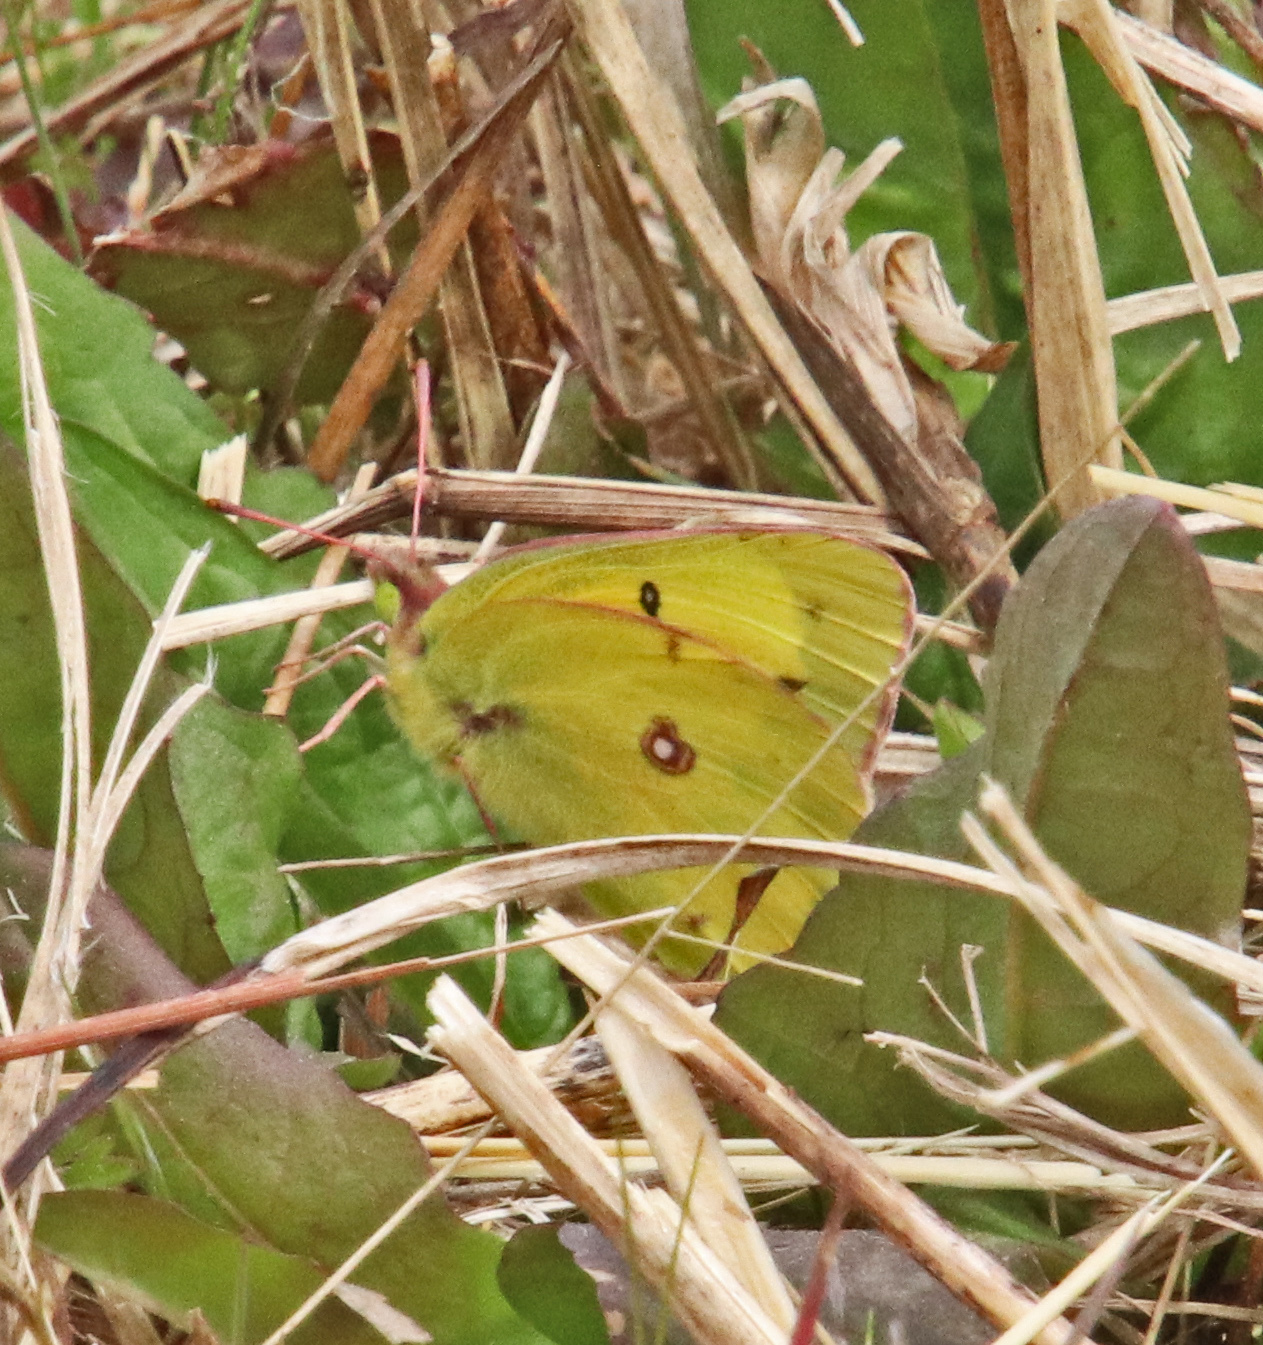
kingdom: Animalia
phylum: Arthropoda
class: Insecta
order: Lepidoptera
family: Pieridae
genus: Colias
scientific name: Colias eurytheme
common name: Alfalfa butterfly
